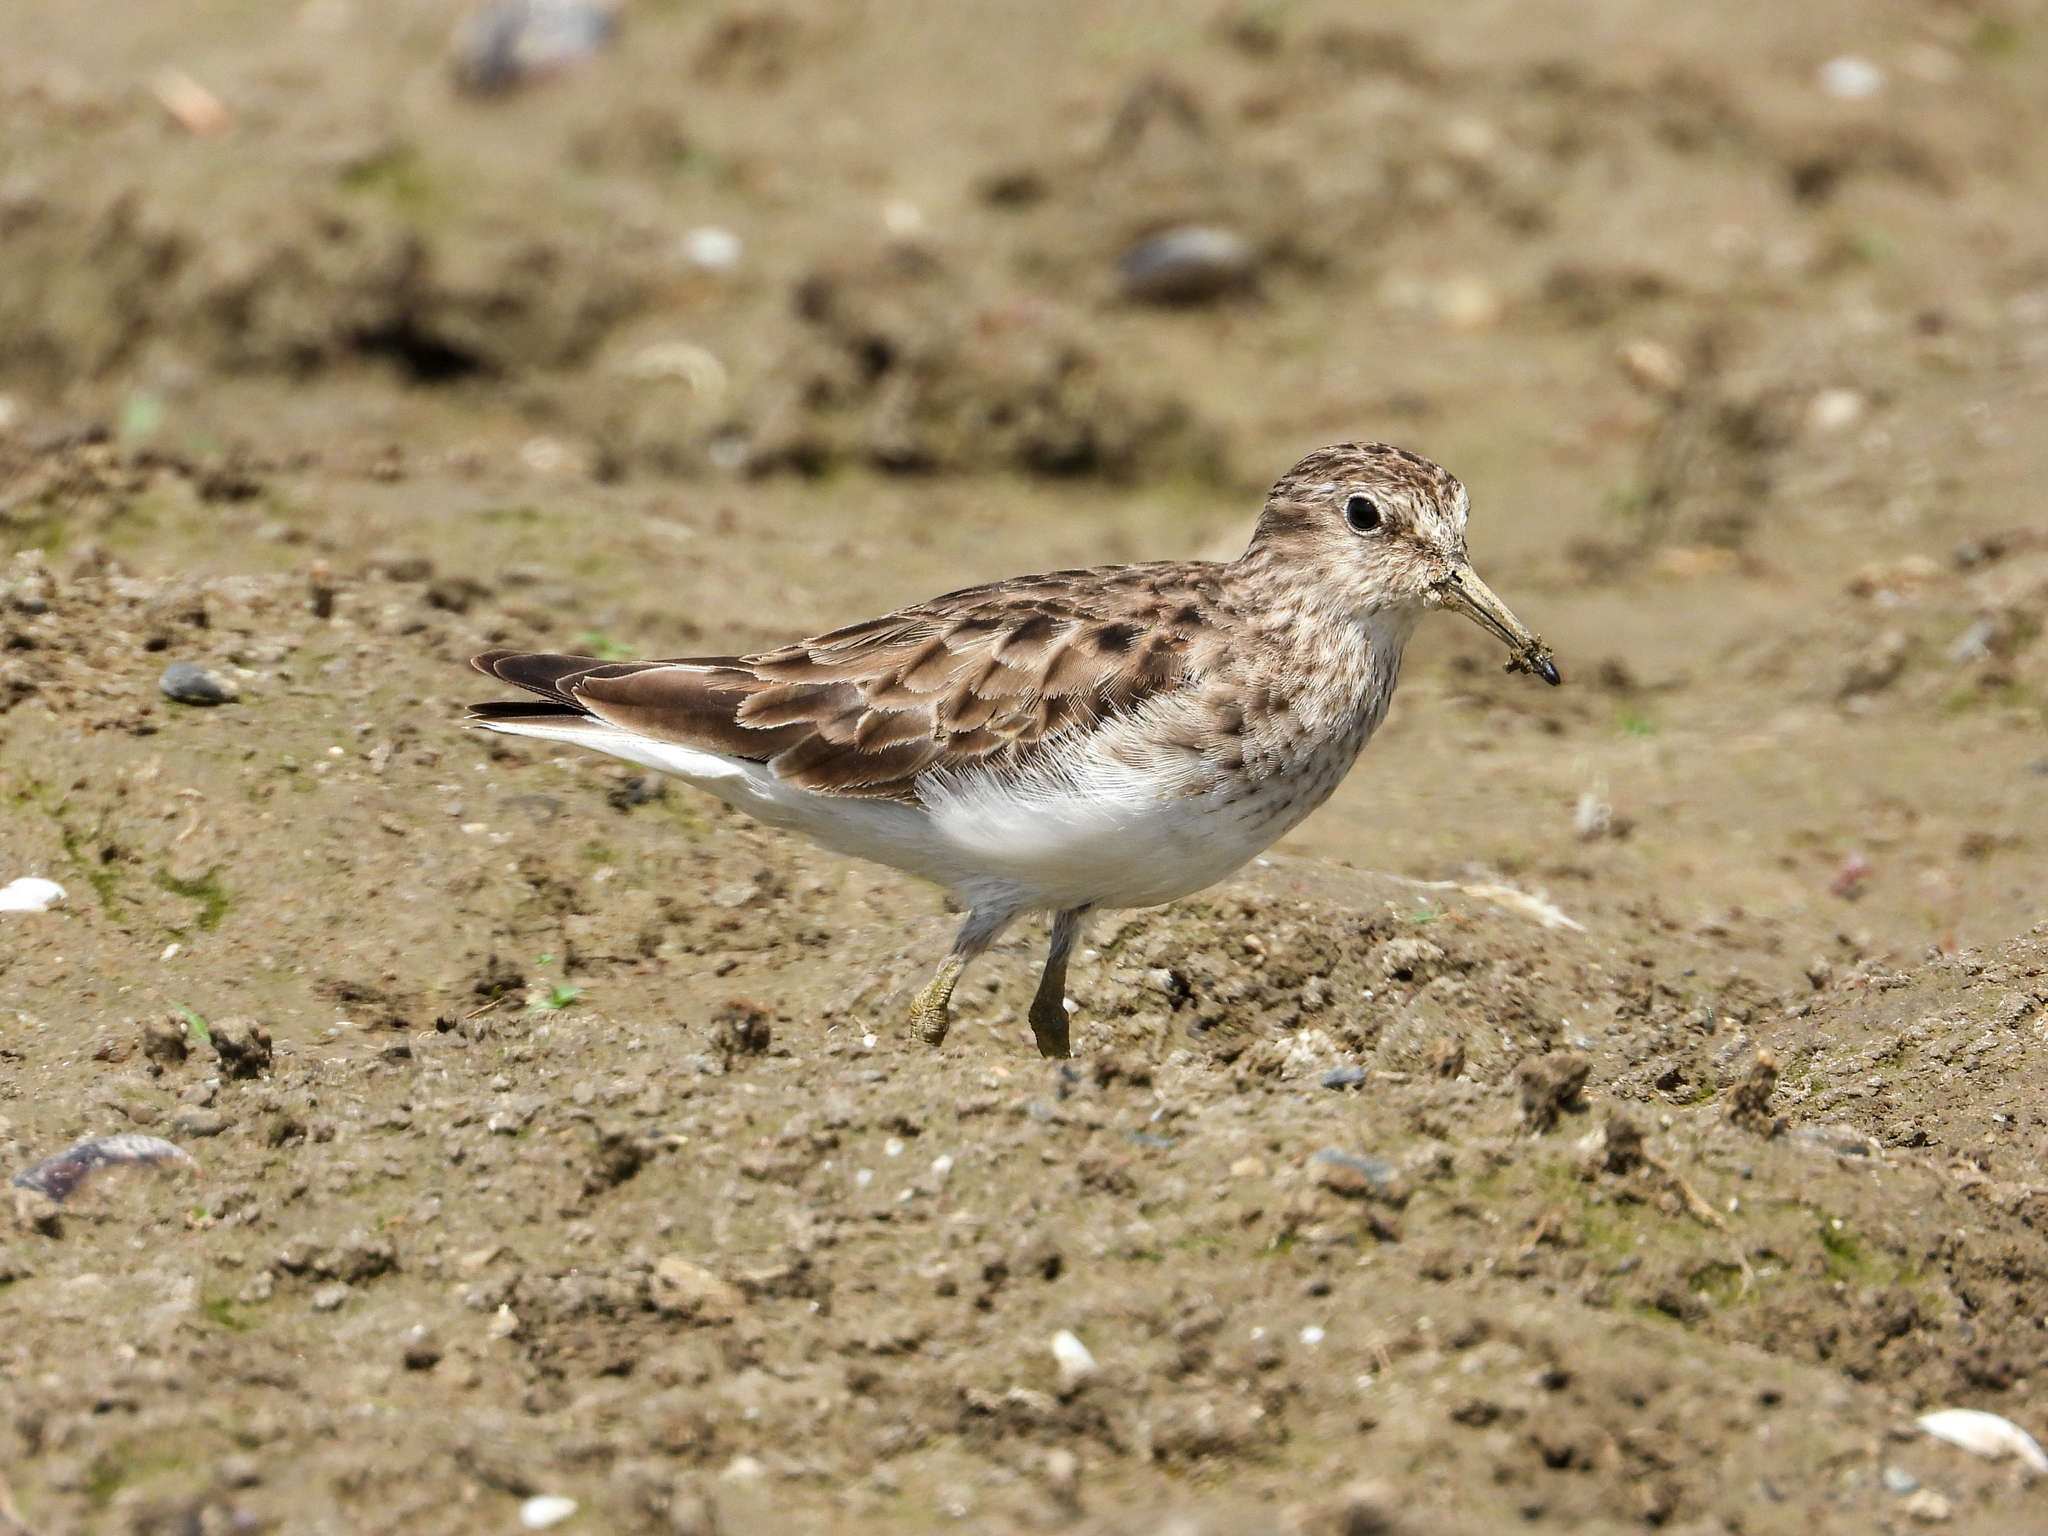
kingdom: Animalia
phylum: Chordata
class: Aves
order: Charadriiformes
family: Scolopacidae
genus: Calidris
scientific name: Calidris minutilla
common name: Least sandpiper
